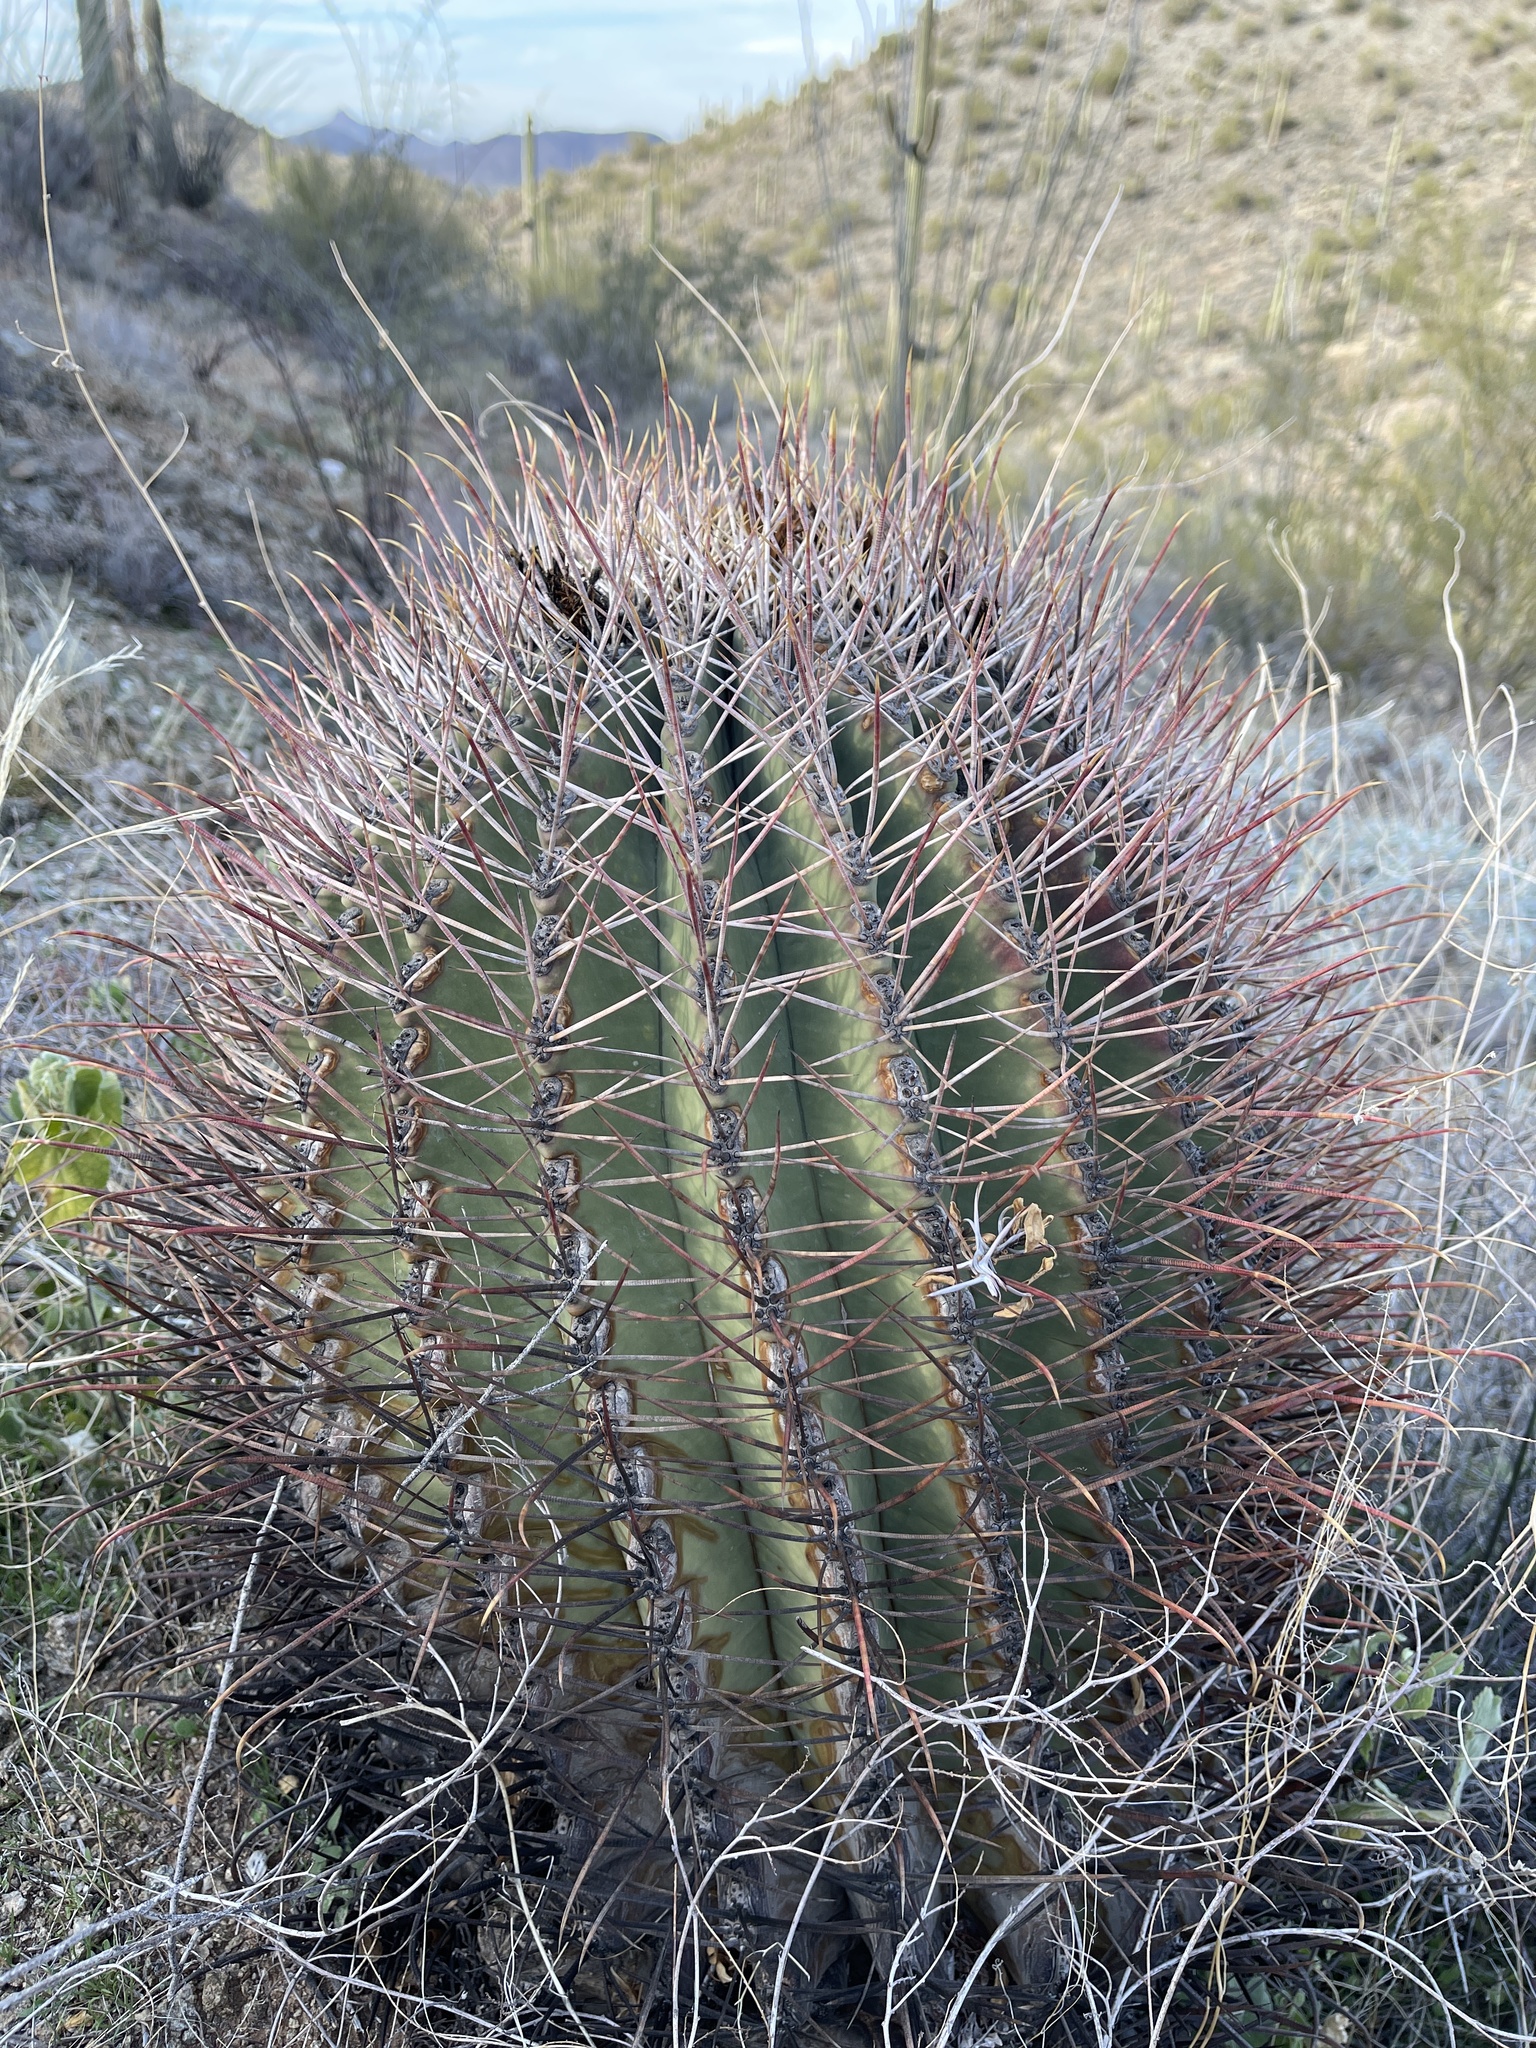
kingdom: Plantae
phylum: Tracheophyta
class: Magnoliopsida
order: Caryophyllales
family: Cactaceae
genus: Ferocactus
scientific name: Ferocactus emoryi
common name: Emory's barrel cactus
